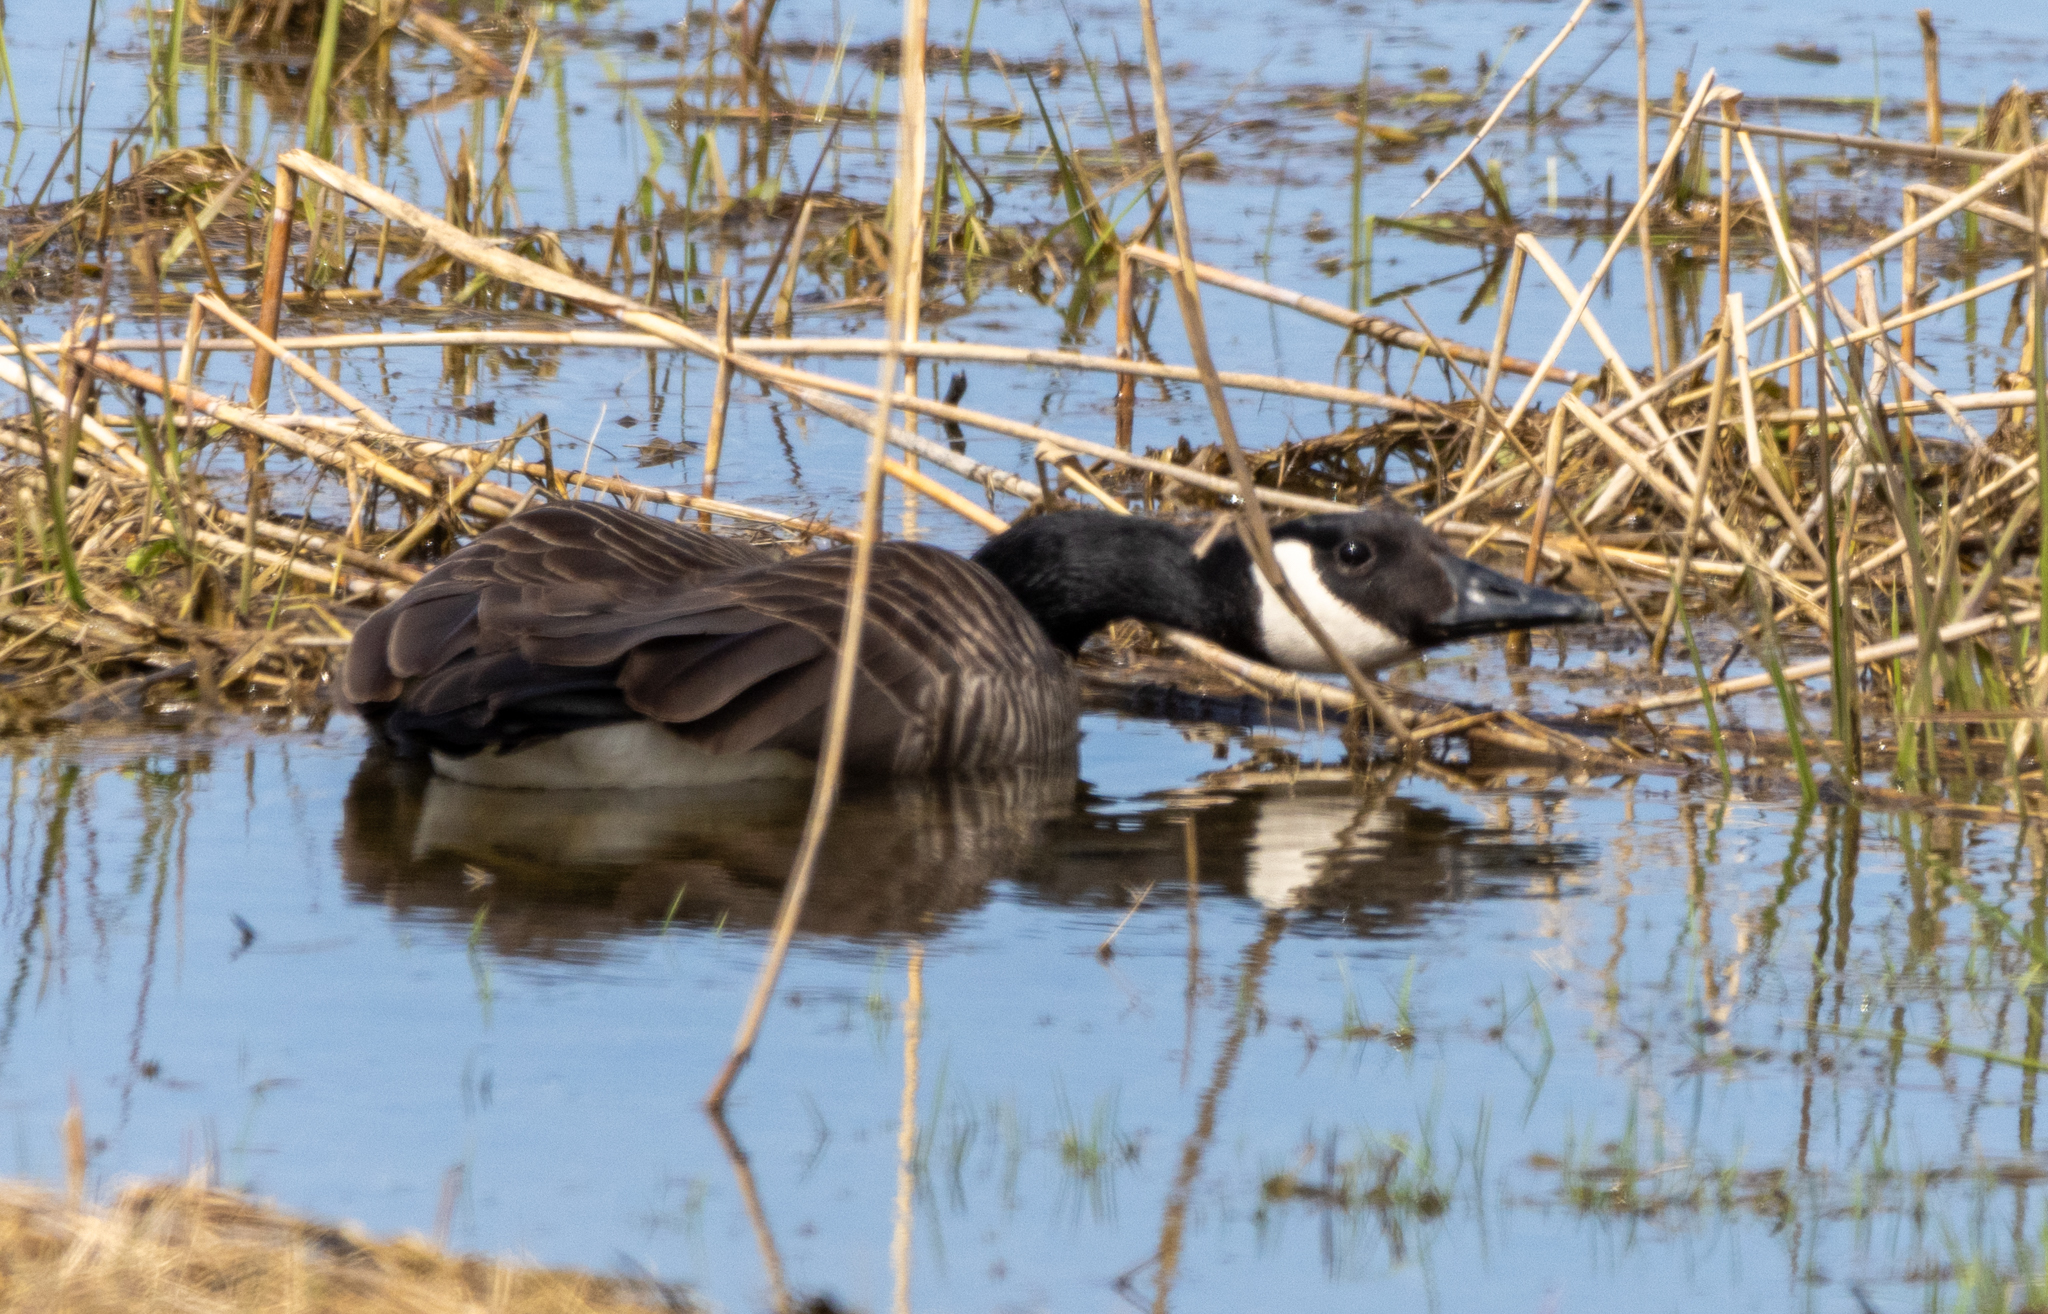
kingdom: Animalia
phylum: Chordata
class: Aves
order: Anseriformes
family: Anatidae
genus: Branta
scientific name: Branta canadensis
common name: Canada goose
